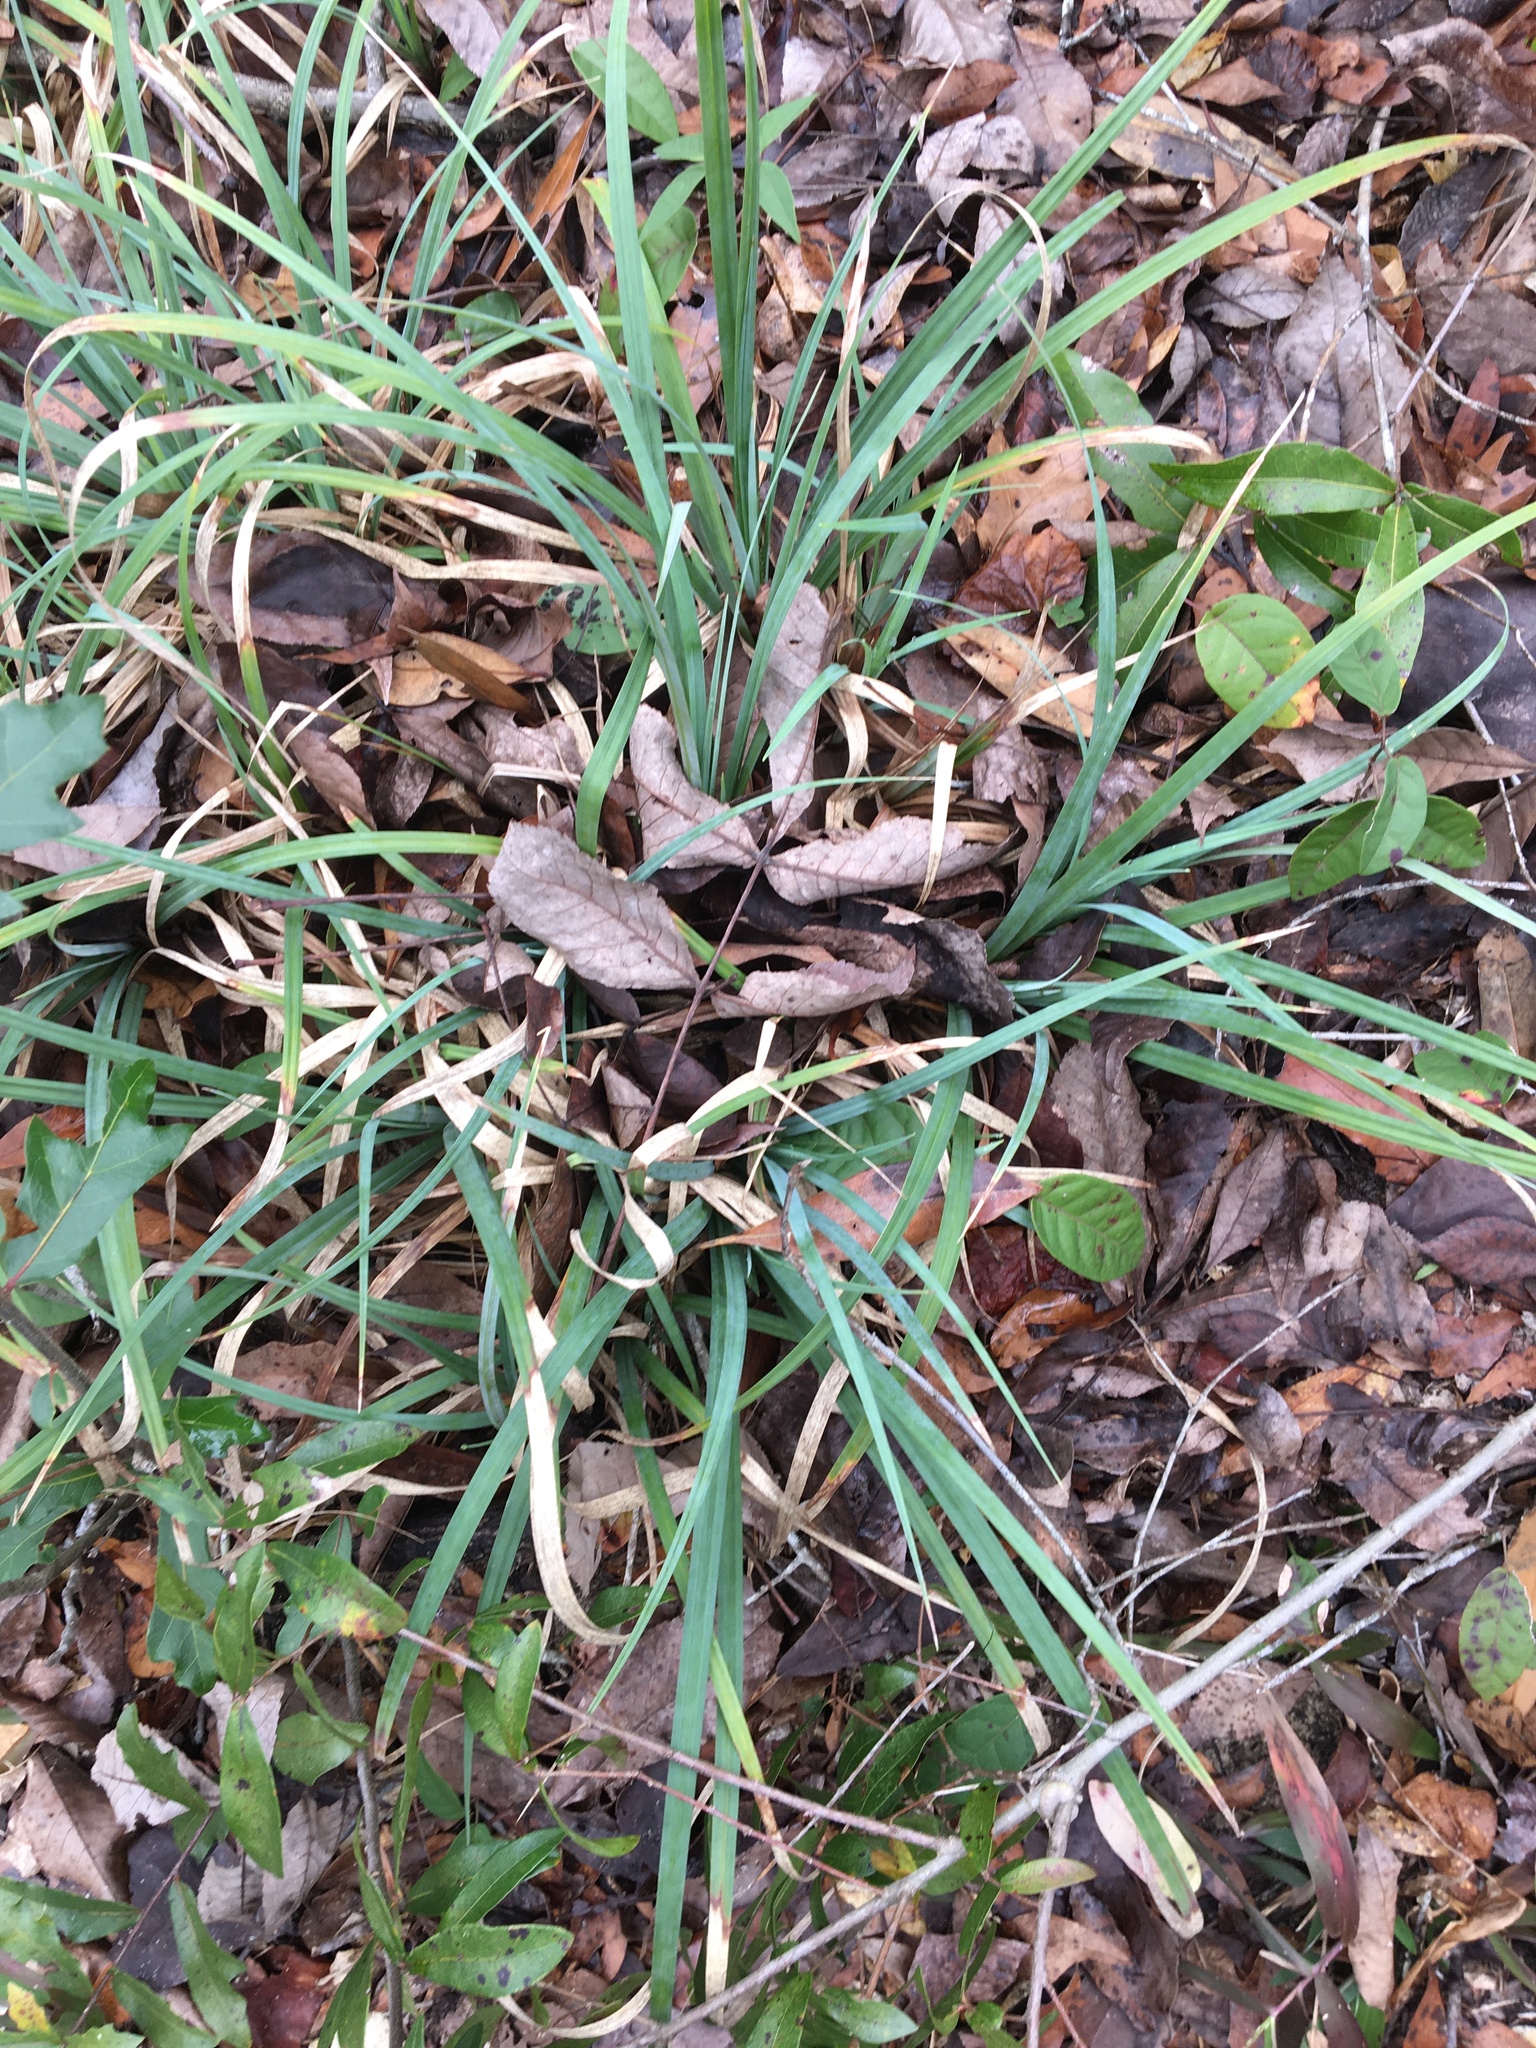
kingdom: Plantae
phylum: Tracheophyta
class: Liliopsida
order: Poales
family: Cyperaceae
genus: Carex
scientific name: Carex baltzellii
